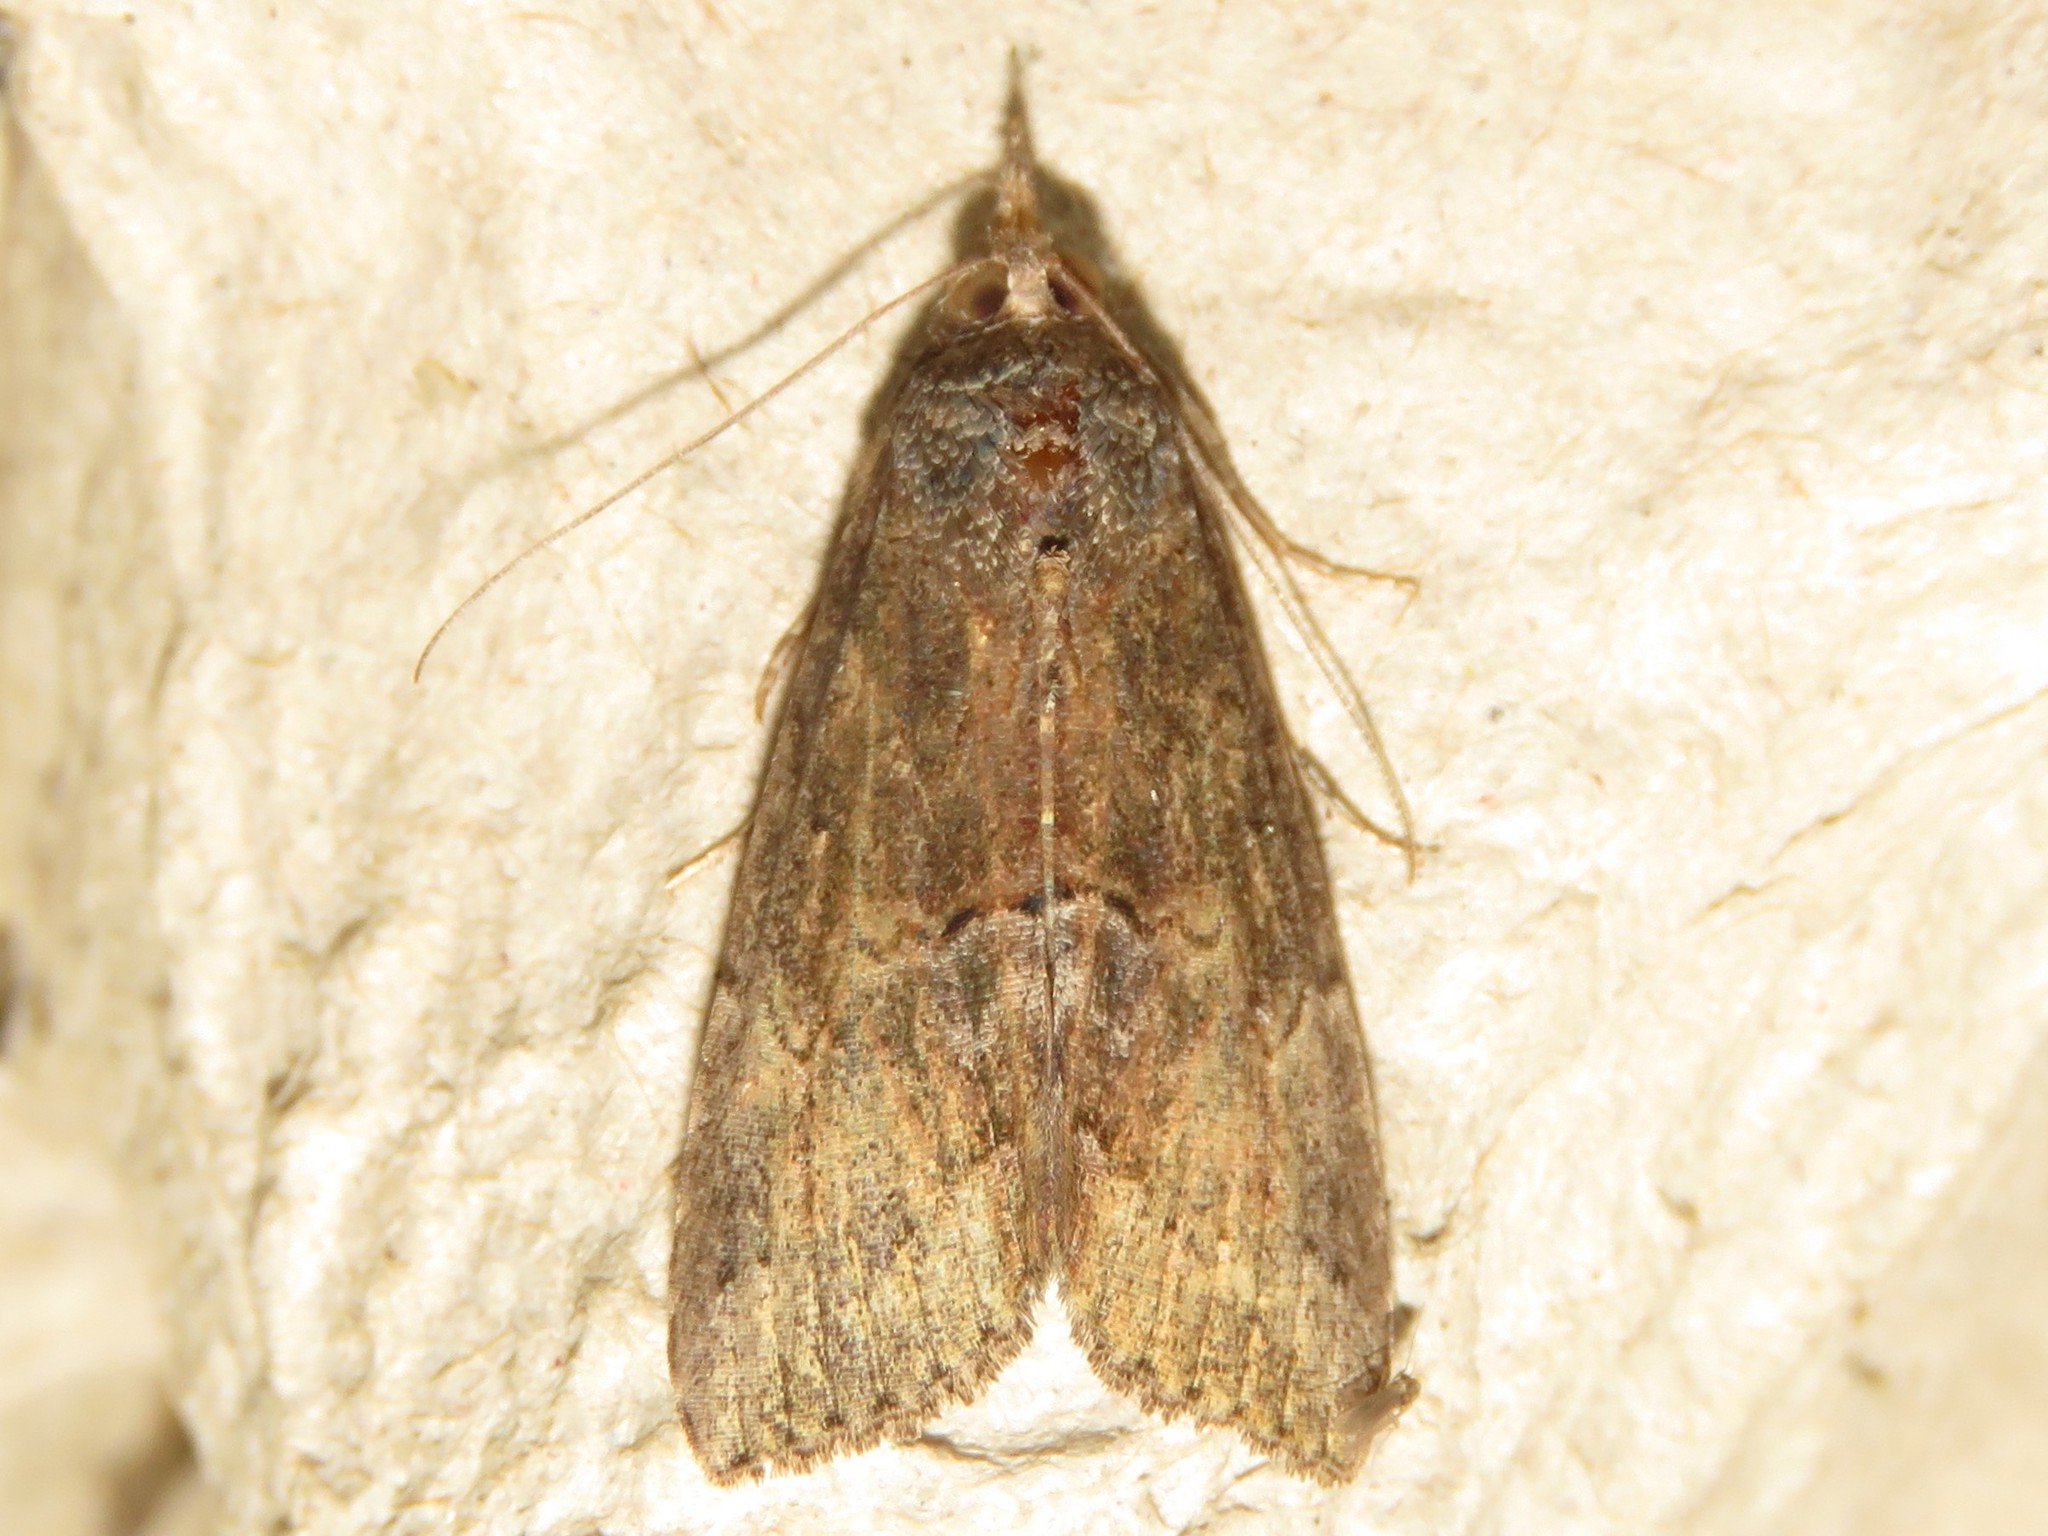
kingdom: Animalia
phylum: Arthropoda
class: Insecta
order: Lepidoptera
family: Erebidae
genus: Hypena
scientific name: Hypena scabra
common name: Green cloverworm
